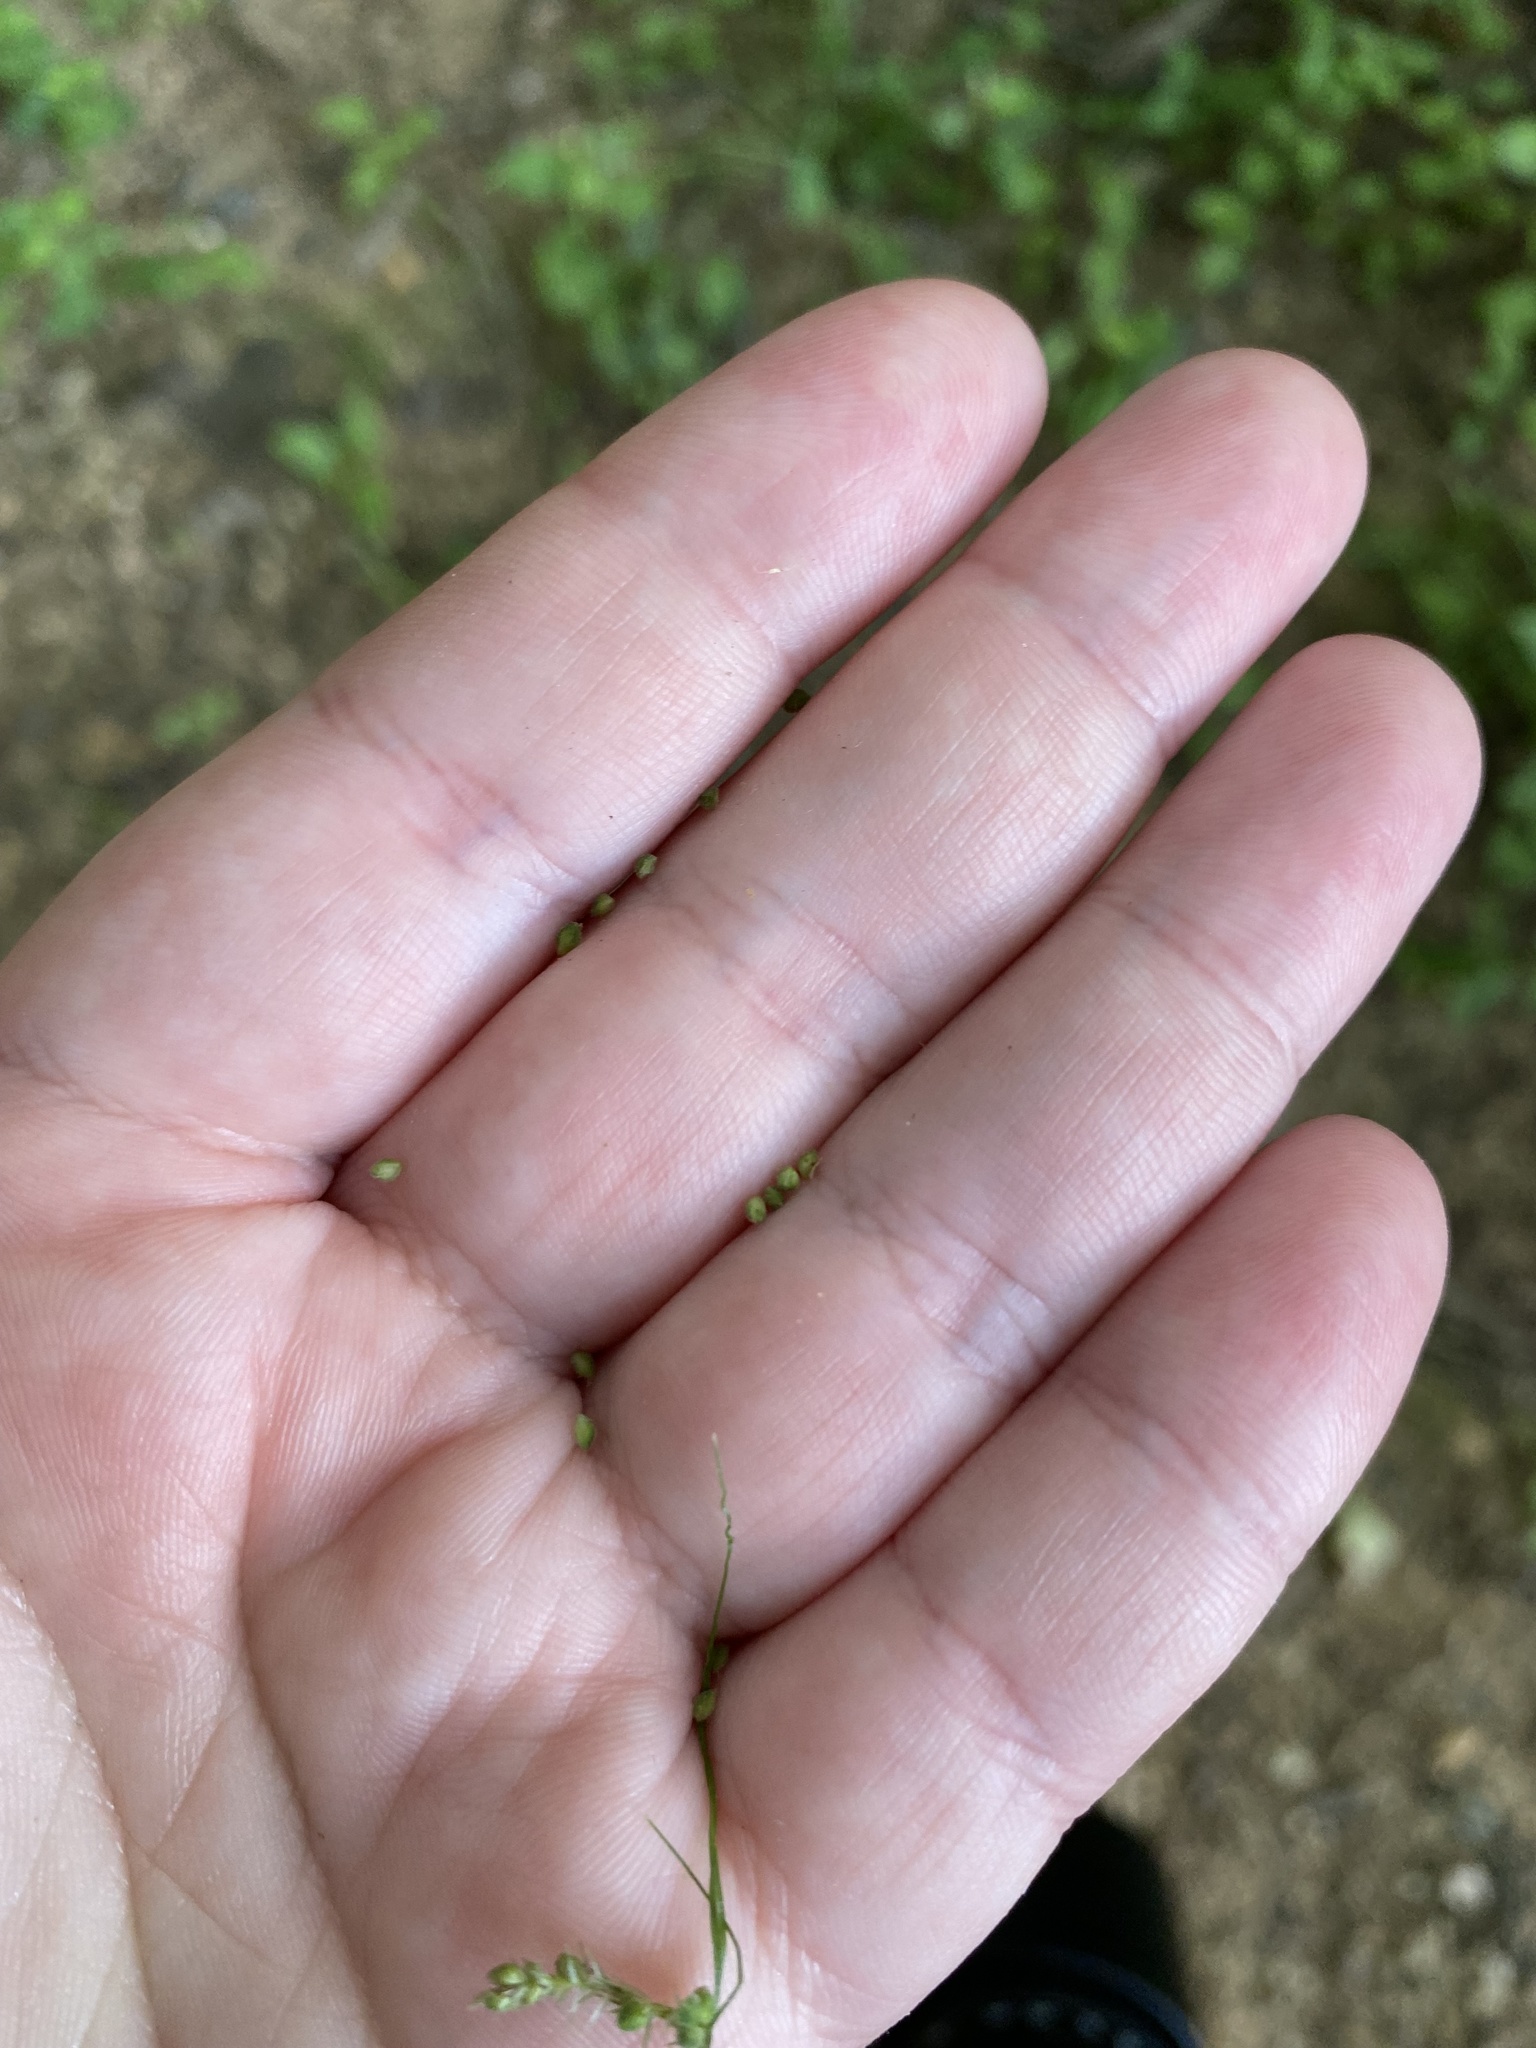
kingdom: Plantae
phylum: Tracheophyta
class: Liliopsida
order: Poales
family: Cyperaceae
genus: Carex
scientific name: Carex swanii
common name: Downy green sedge
